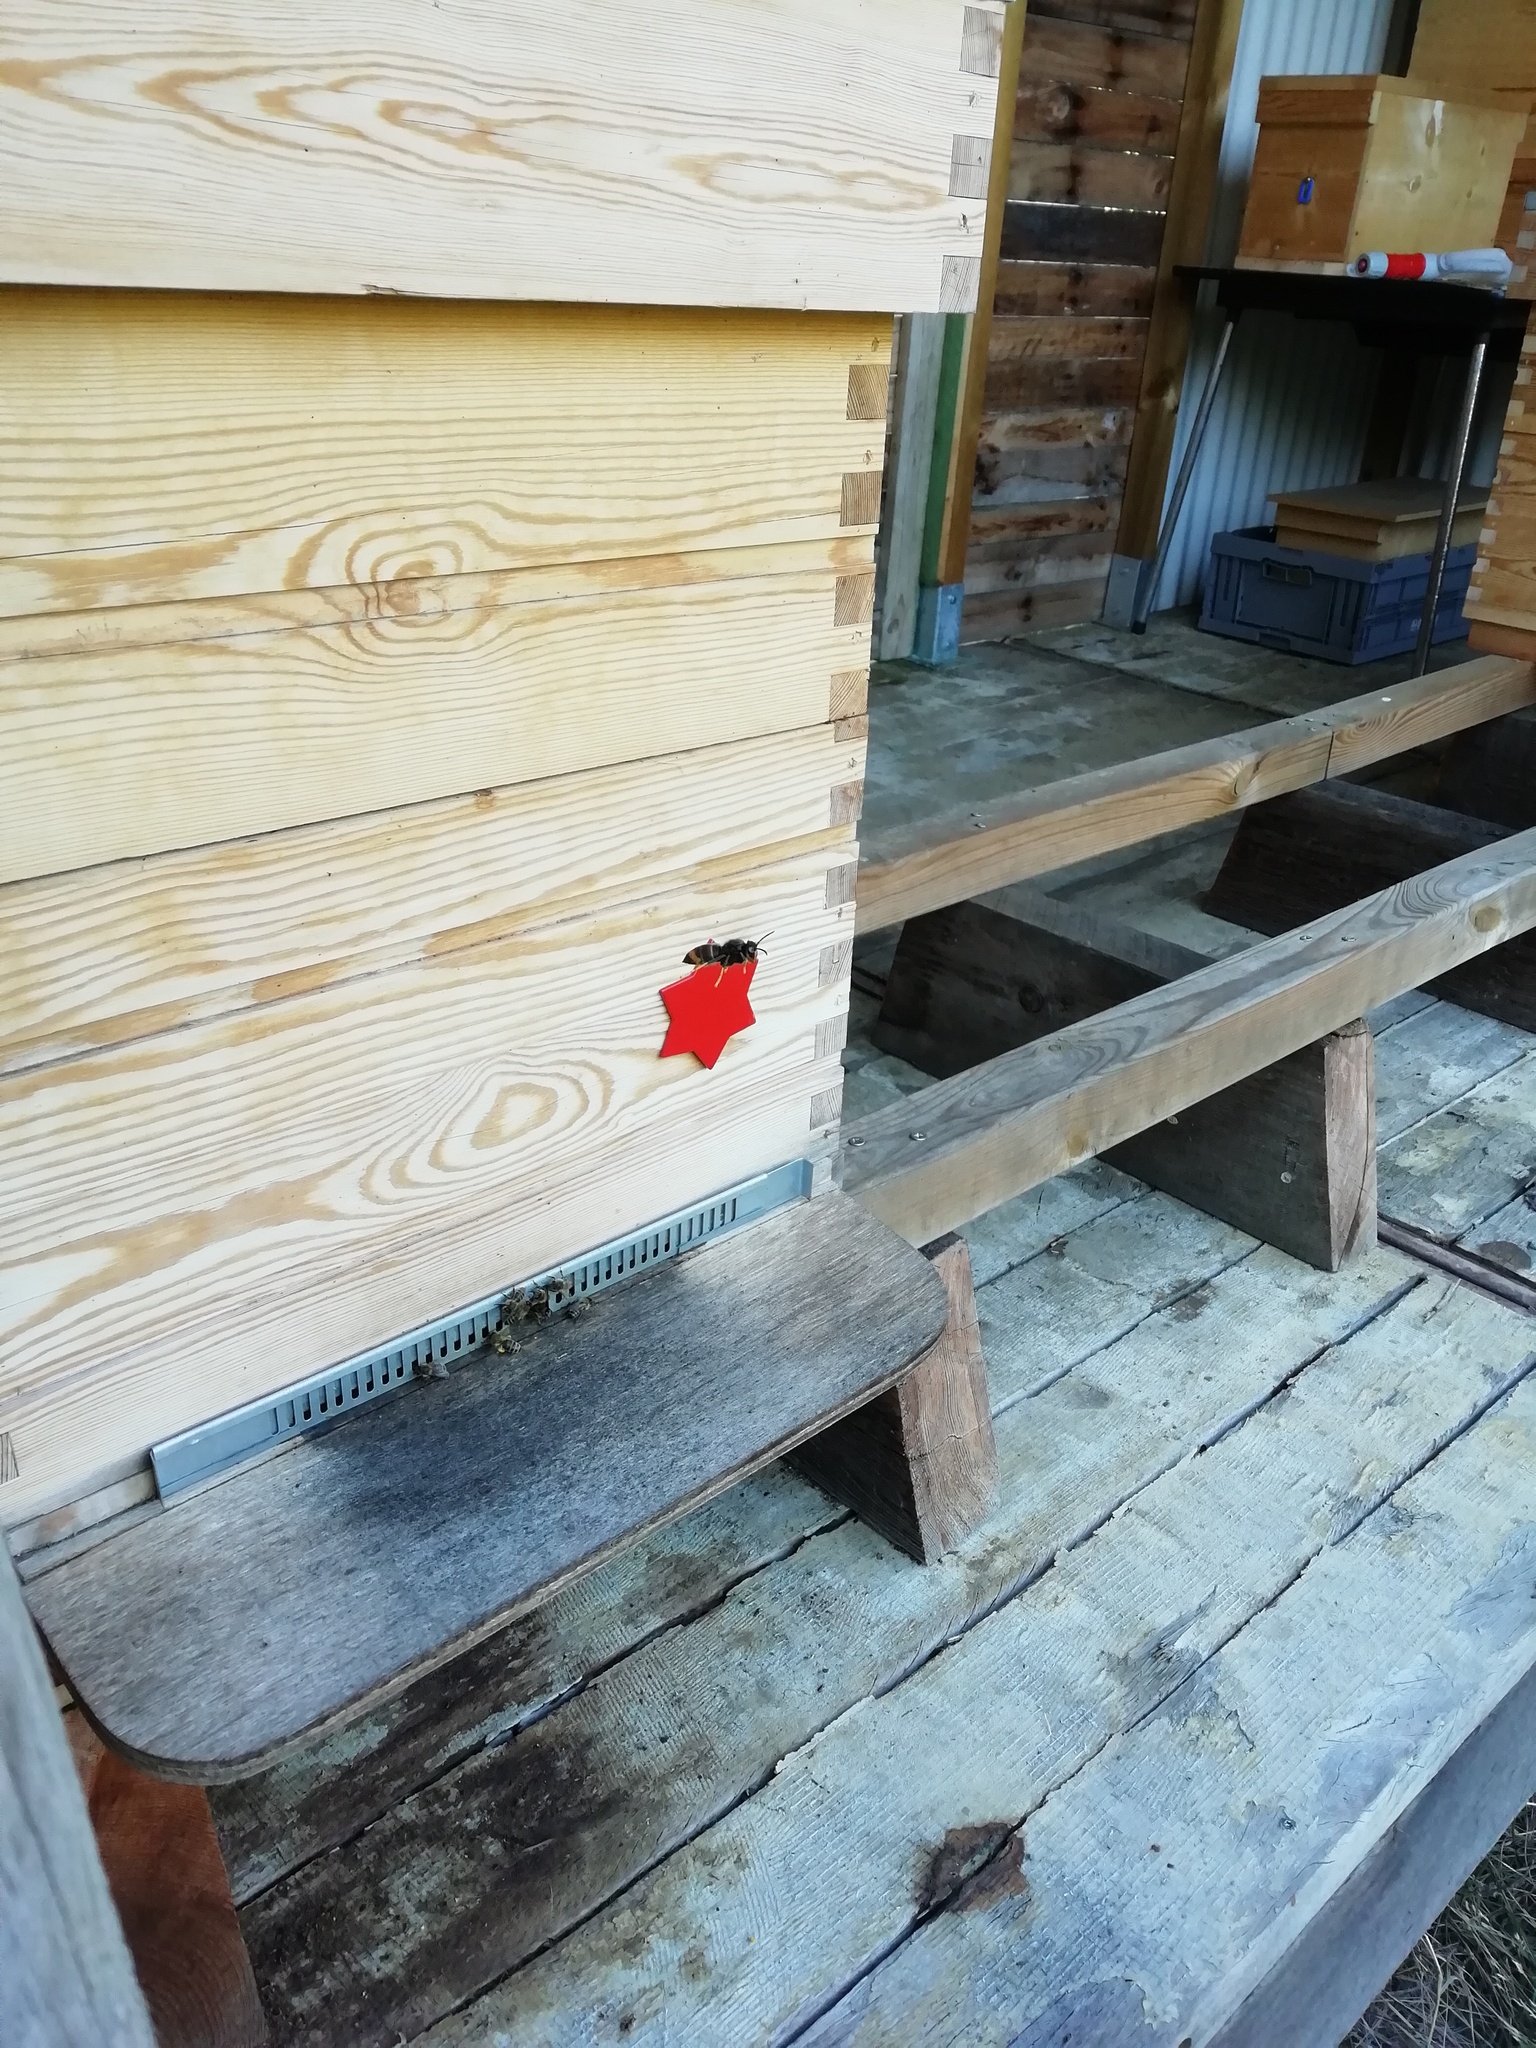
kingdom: Animalia
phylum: Arthropoda
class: Insecta
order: Hymenoptera
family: Vespidae
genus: Vespa
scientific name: Vespa velutina
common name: Asian hornet
